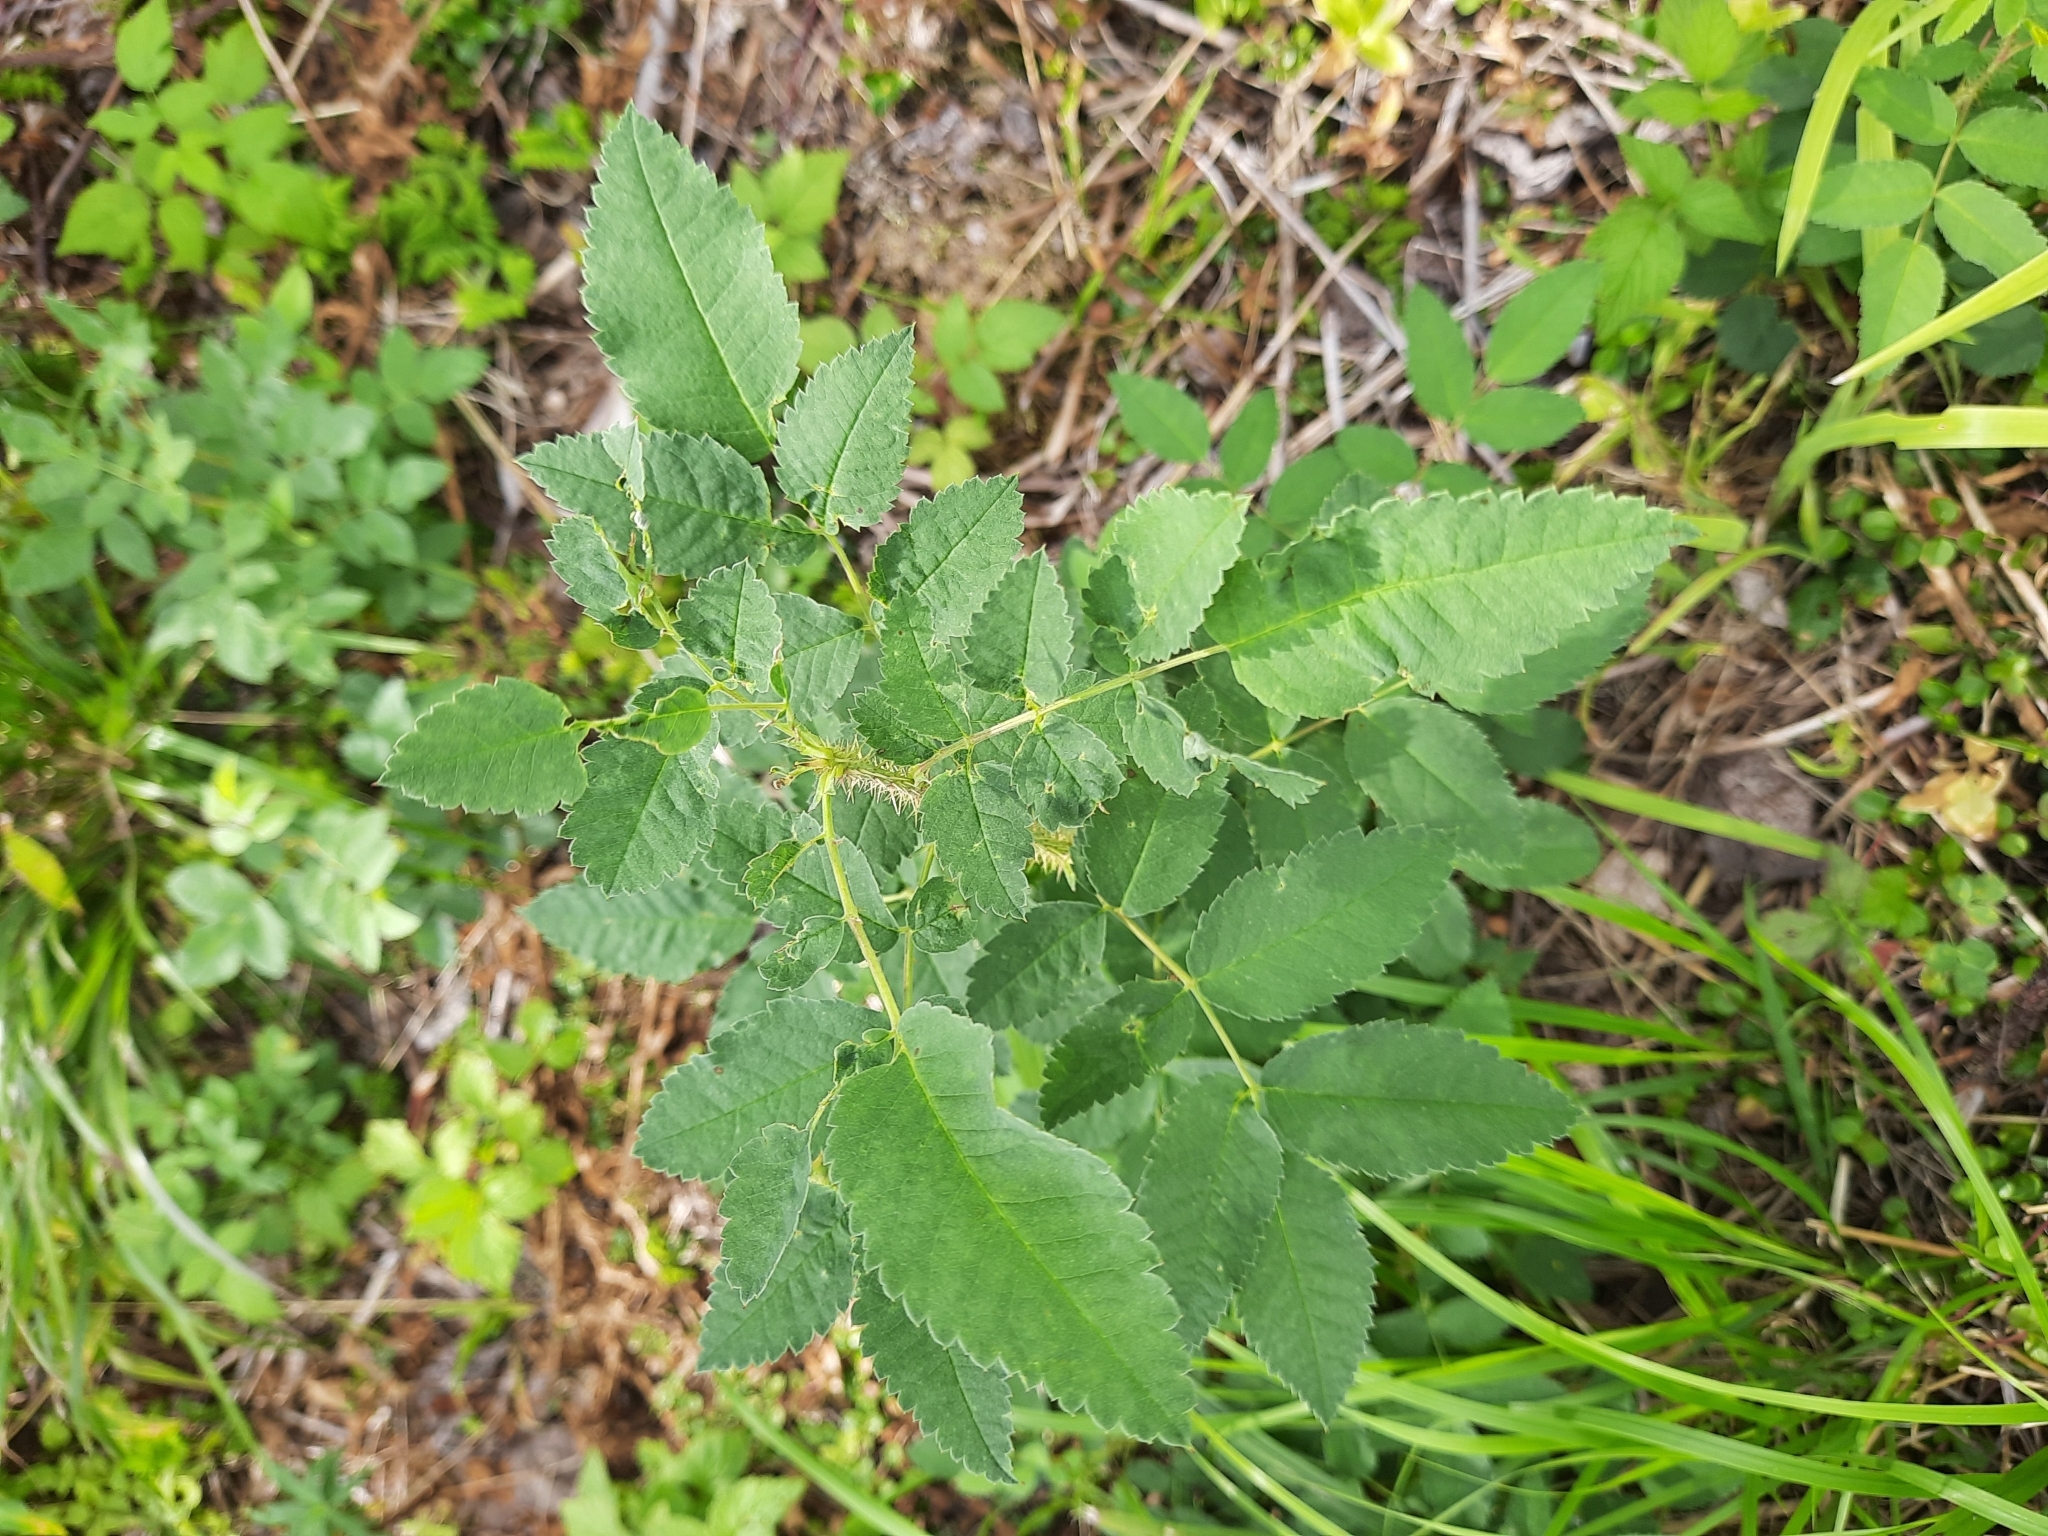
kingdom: Plantae
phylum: Tracheophyta
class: Magnoliopsida
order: Rosales
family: Rosaceae
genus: Rosa
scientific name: Rosa acicularis
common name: Prickly rose
